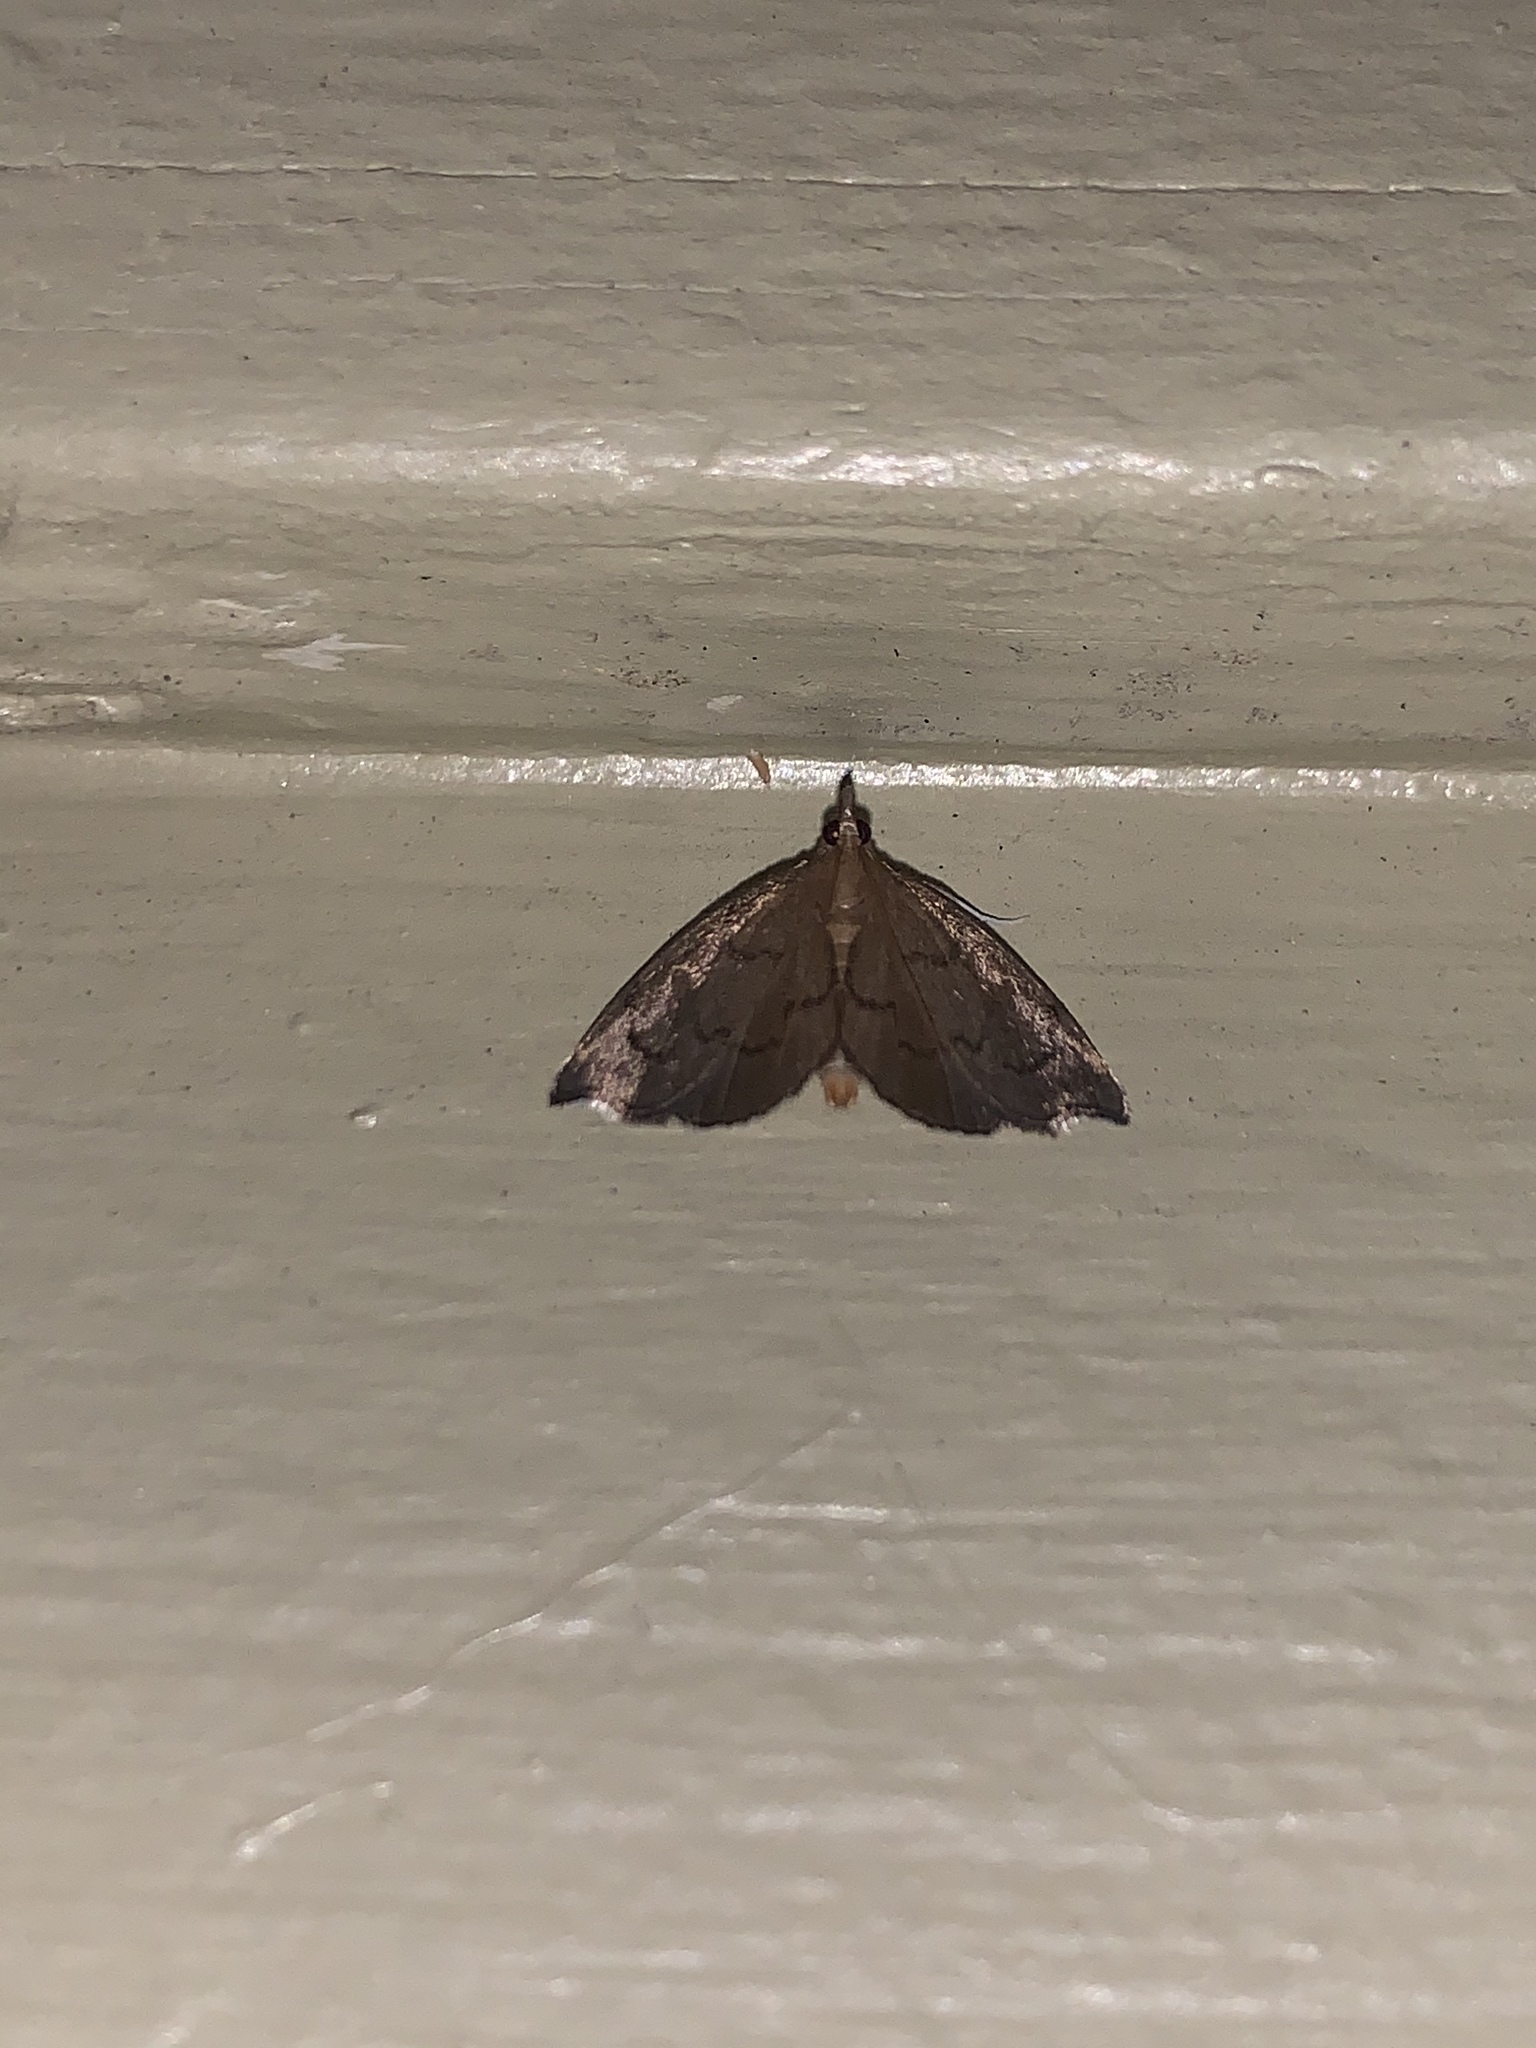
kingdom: Animalia
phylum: Arthropoda
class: Insecta
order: Lepidoptera
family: Crambidae
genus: Perispasta
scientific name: Perispasta caeculalis
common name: Titian peale's moth
